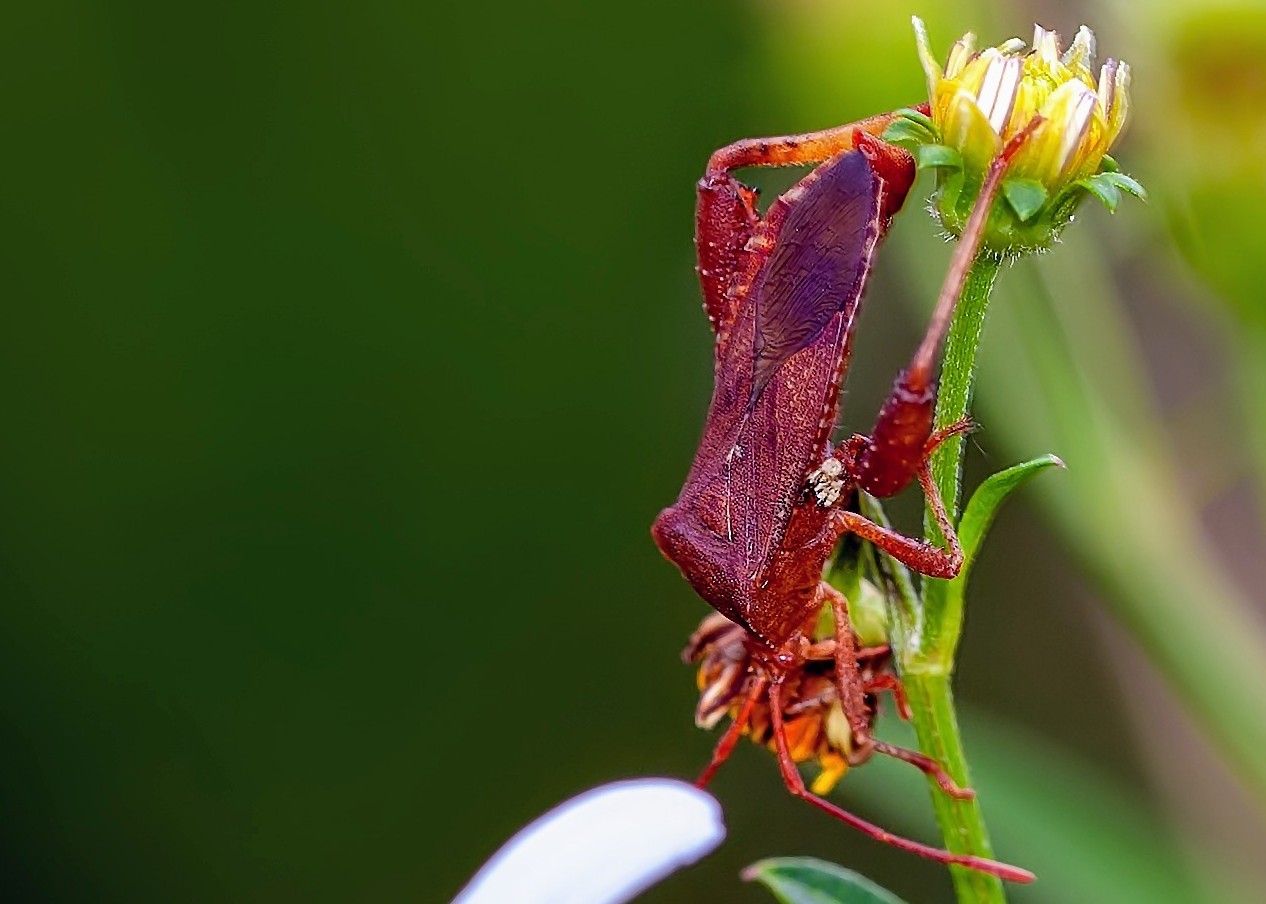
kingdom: Animalia
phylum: Arthropoda
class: Insecta
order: Hemiptera
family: Coreidae
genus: Euthochtha
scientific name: Euthochtha galeator
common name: Helmeted squash bug
